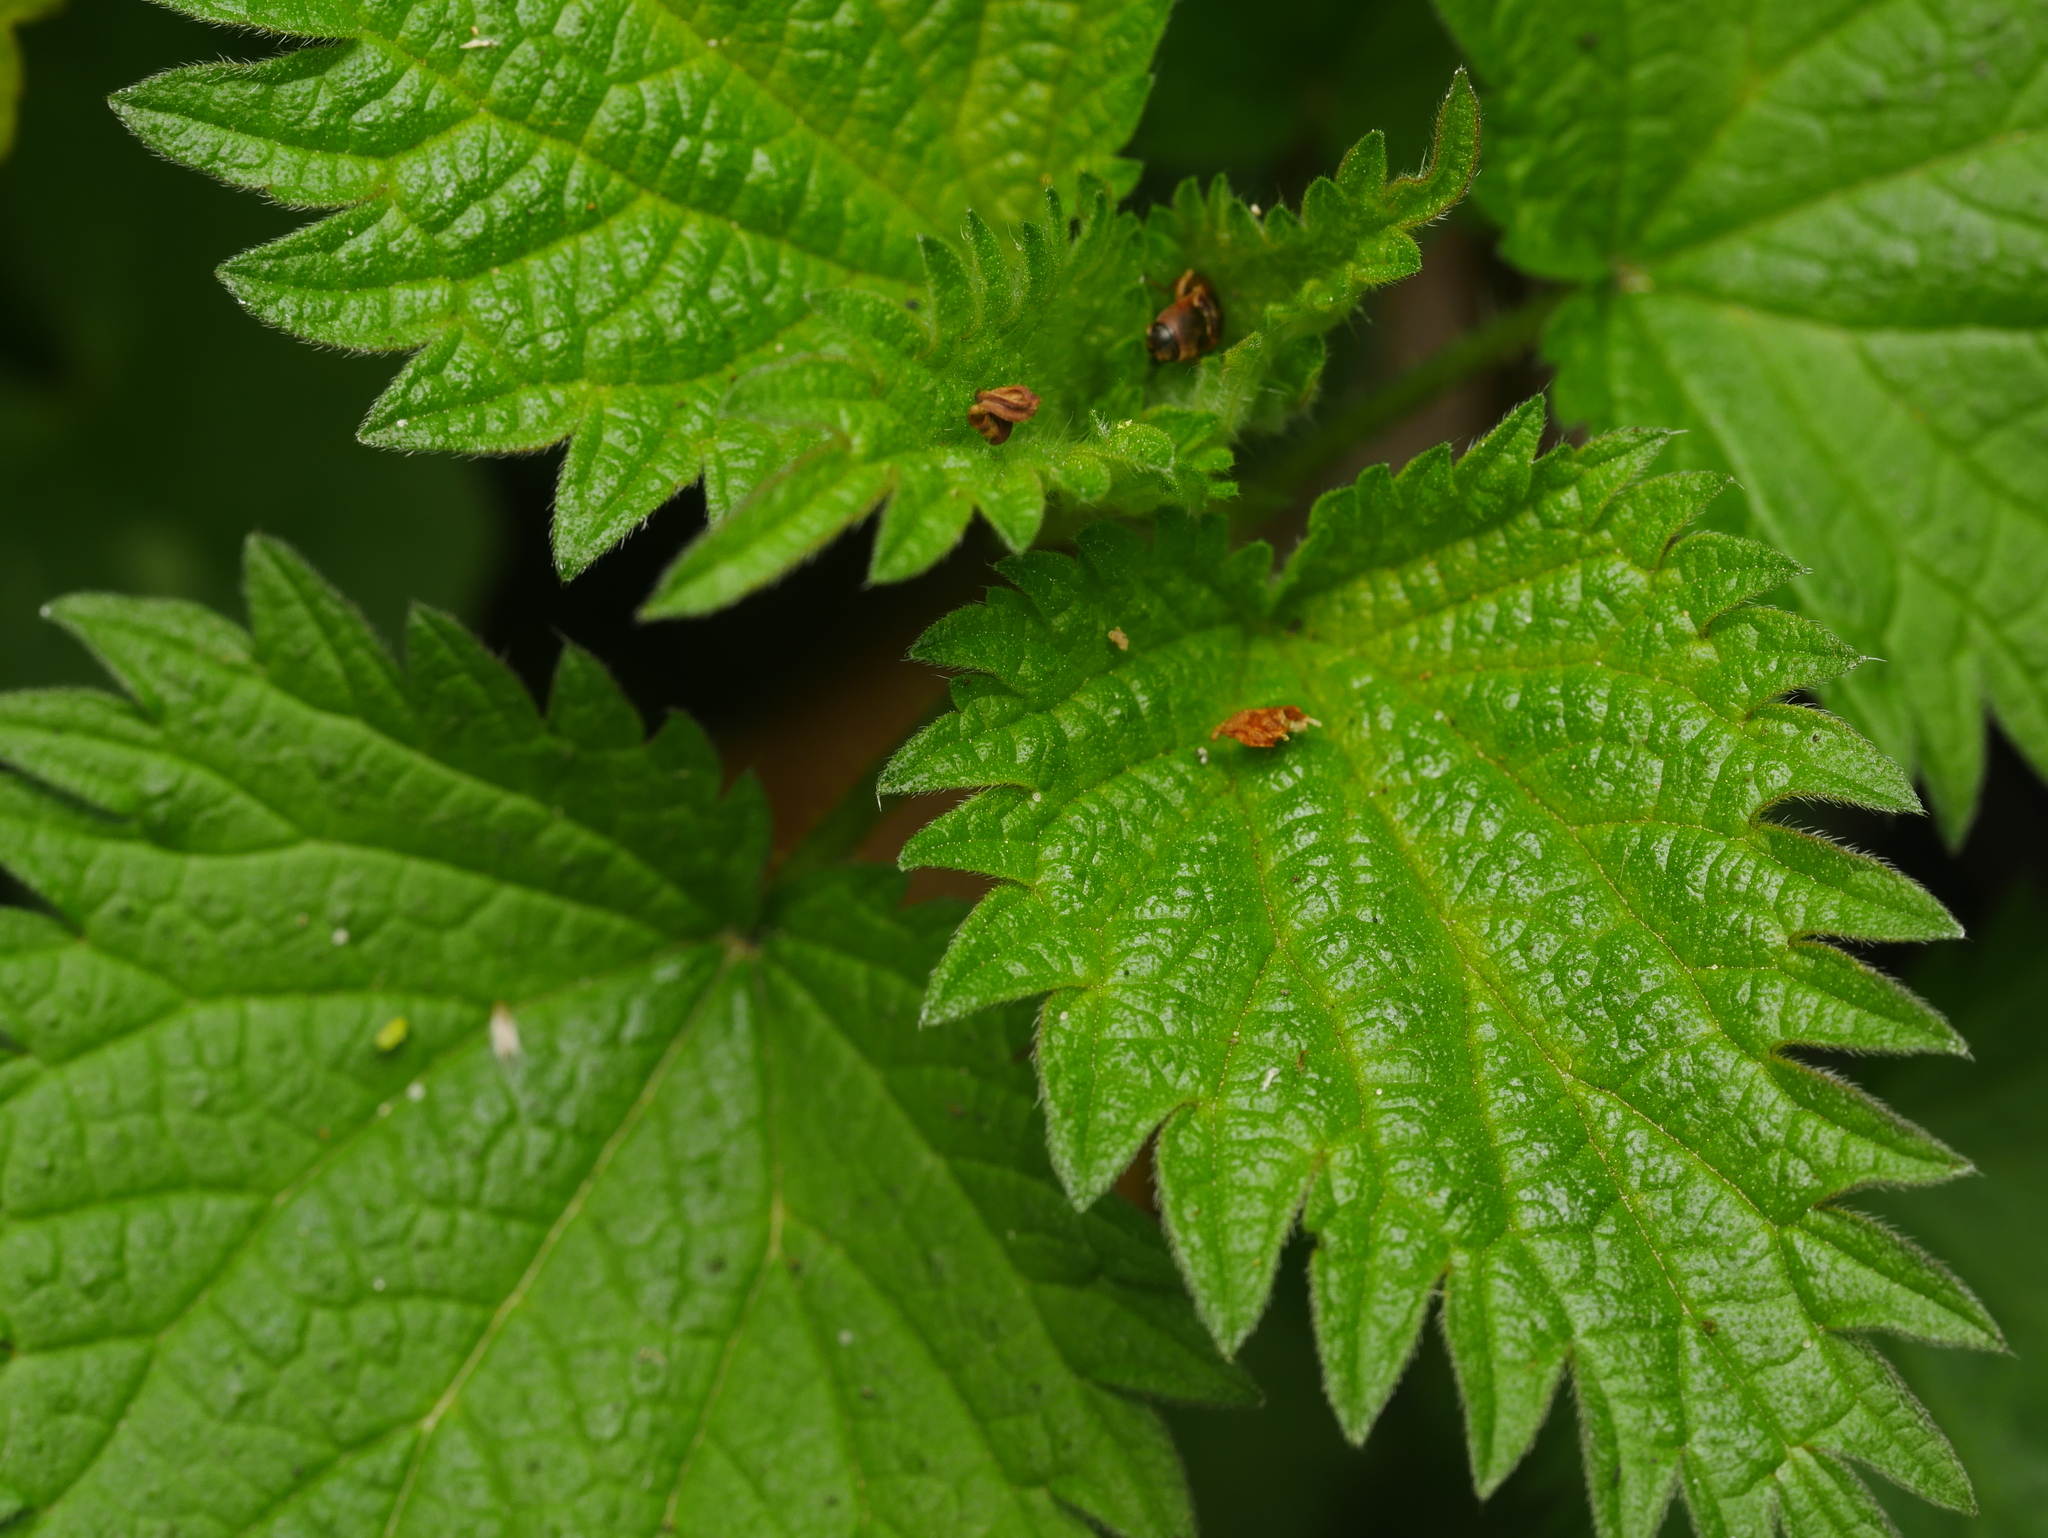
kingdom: Plantae
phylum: Tracheophyta
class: Magnoliopsida
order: Rosales
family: Urticaceae
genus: Urtica
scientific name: Urtica dioica
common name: Common nettle
